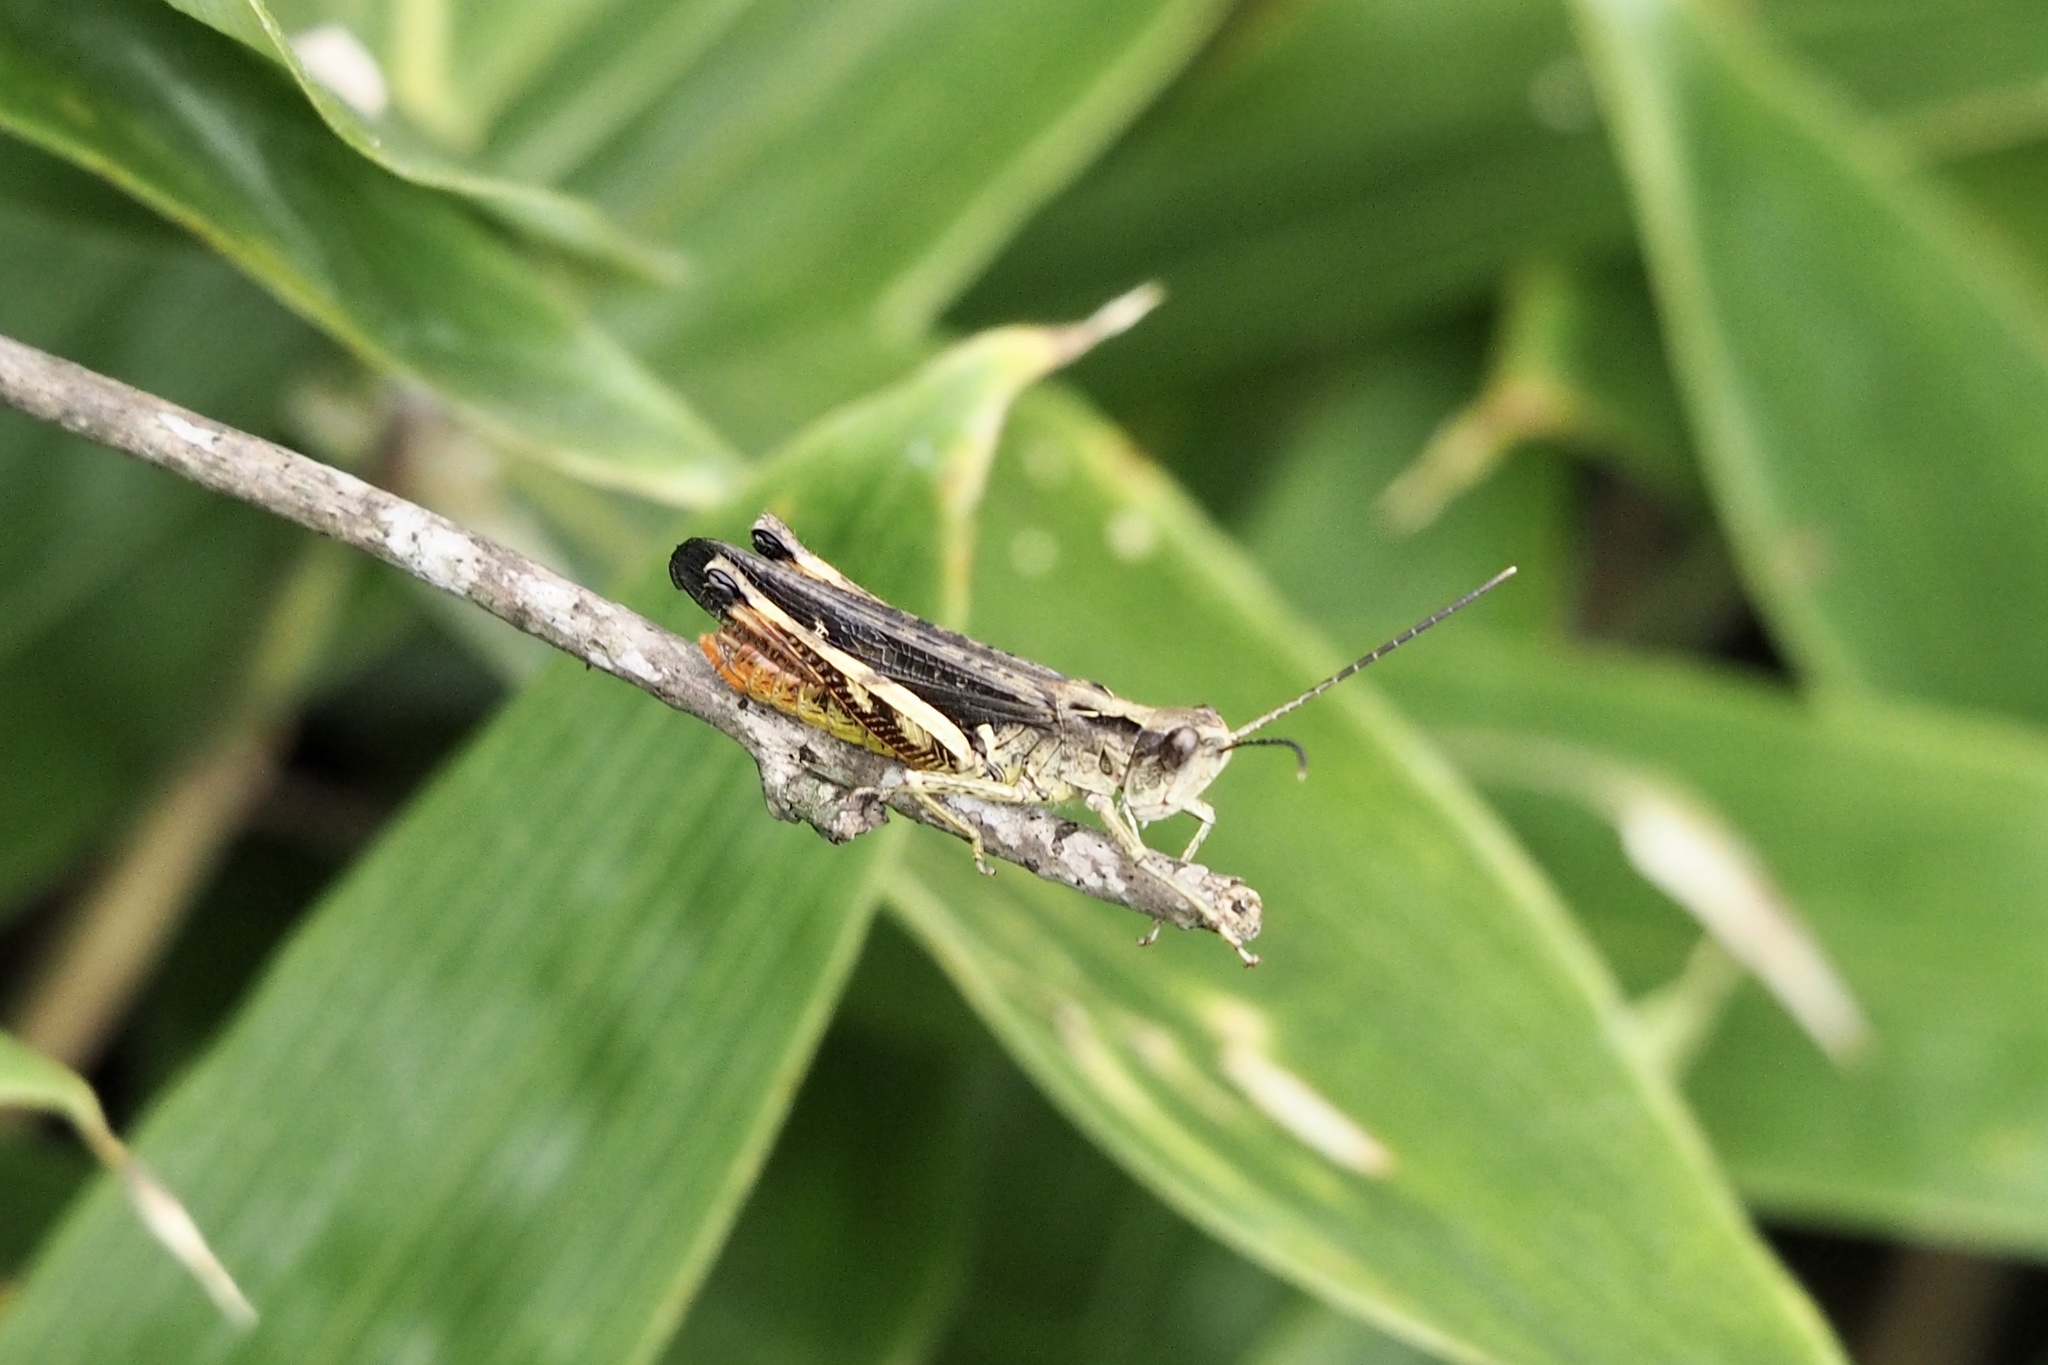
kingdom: Animalia
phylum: Arthropoda
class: Insecta
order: Orthoptera
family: Acrididae
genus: Stenobothrus
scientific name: Stenobothrus fumatus
